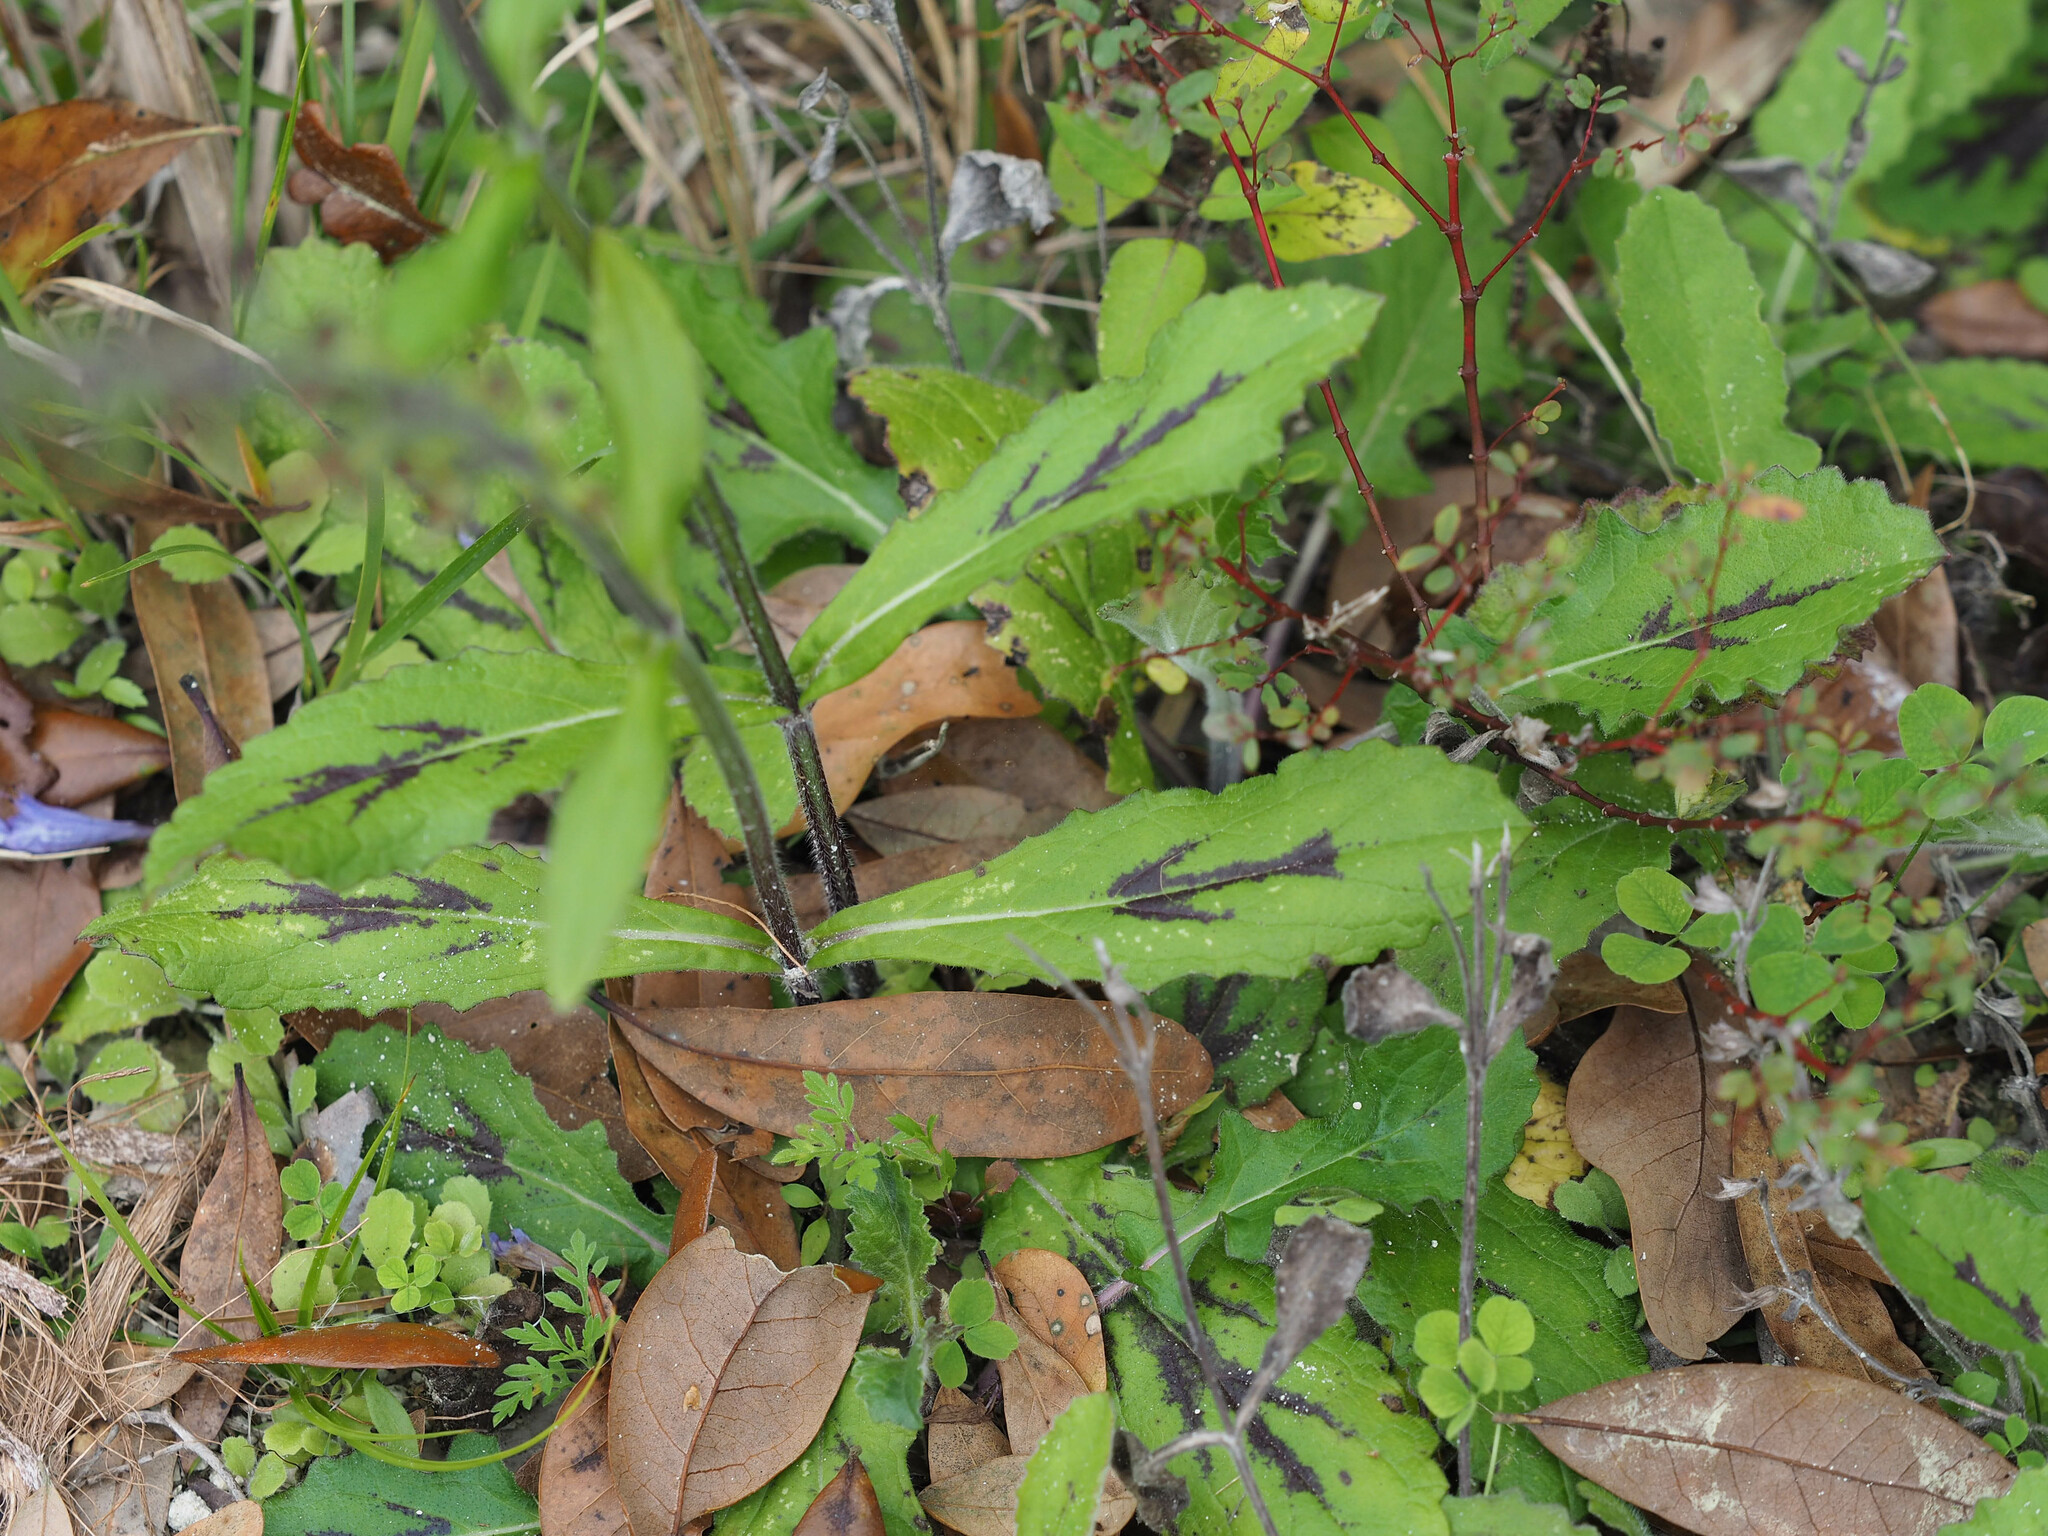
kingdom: Plantae
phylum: Tracheophyta
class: Magnoliopsida
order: Lamiales
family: Lamiaceae
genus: Salvia
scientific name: Salvia lyrata
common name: Cancerweed
